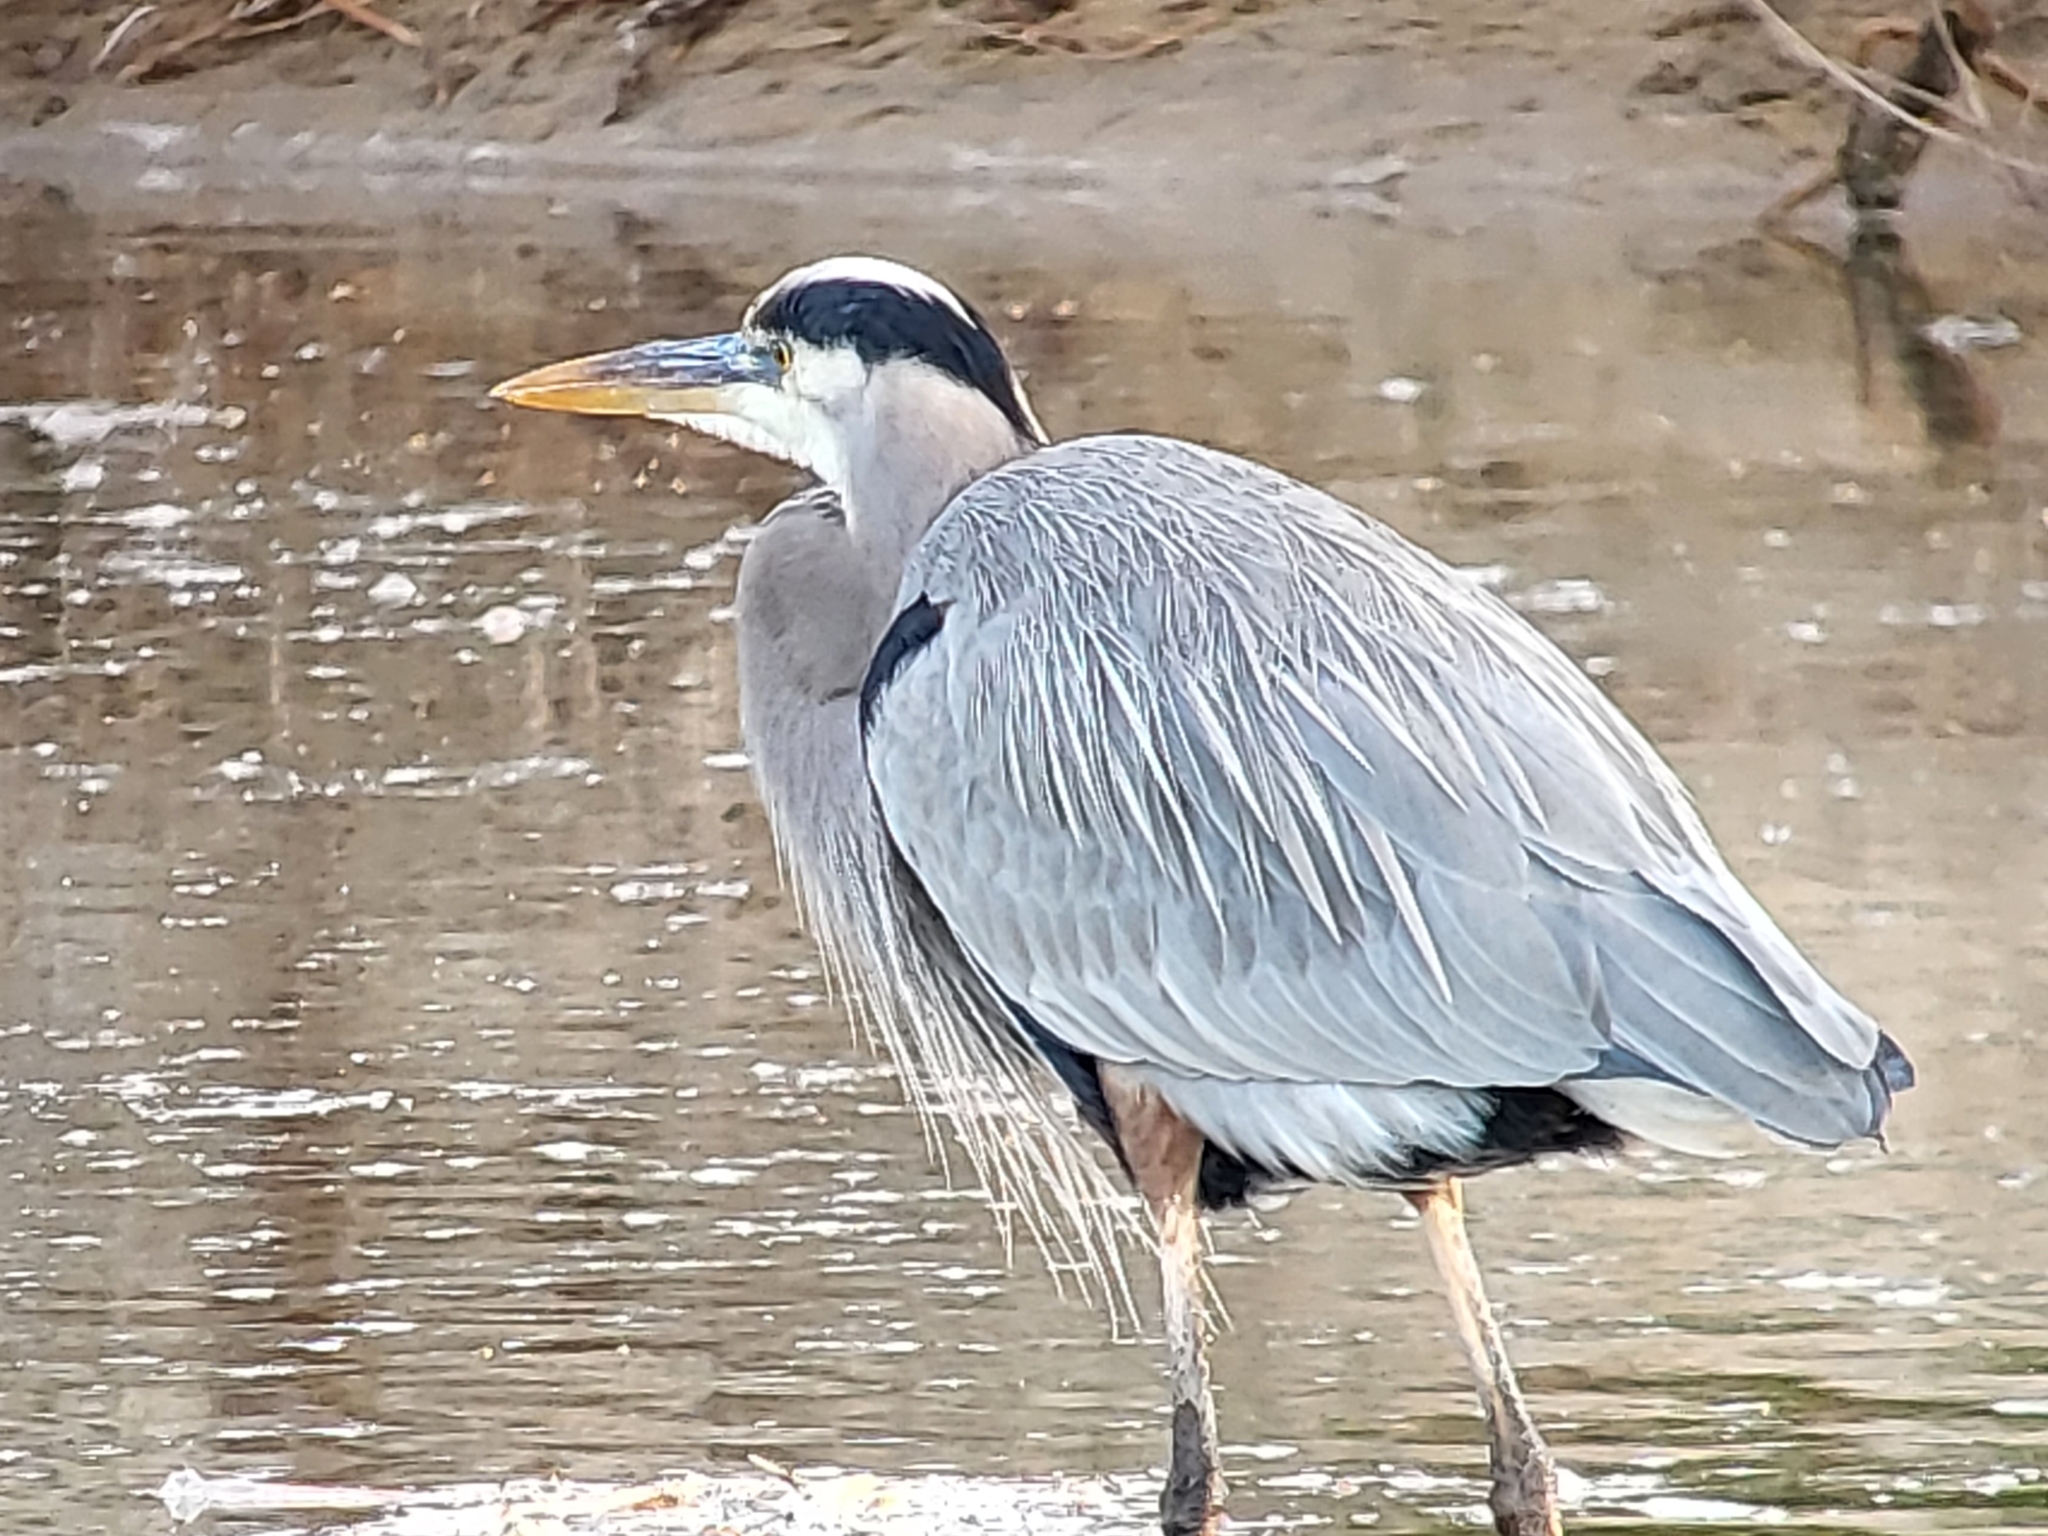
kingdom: Animalia
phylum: Chordata
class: Aves
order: Pelecaniformes
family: Ardeidae
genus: Ardea
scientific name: Ardea herodias
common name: Great blue heron
